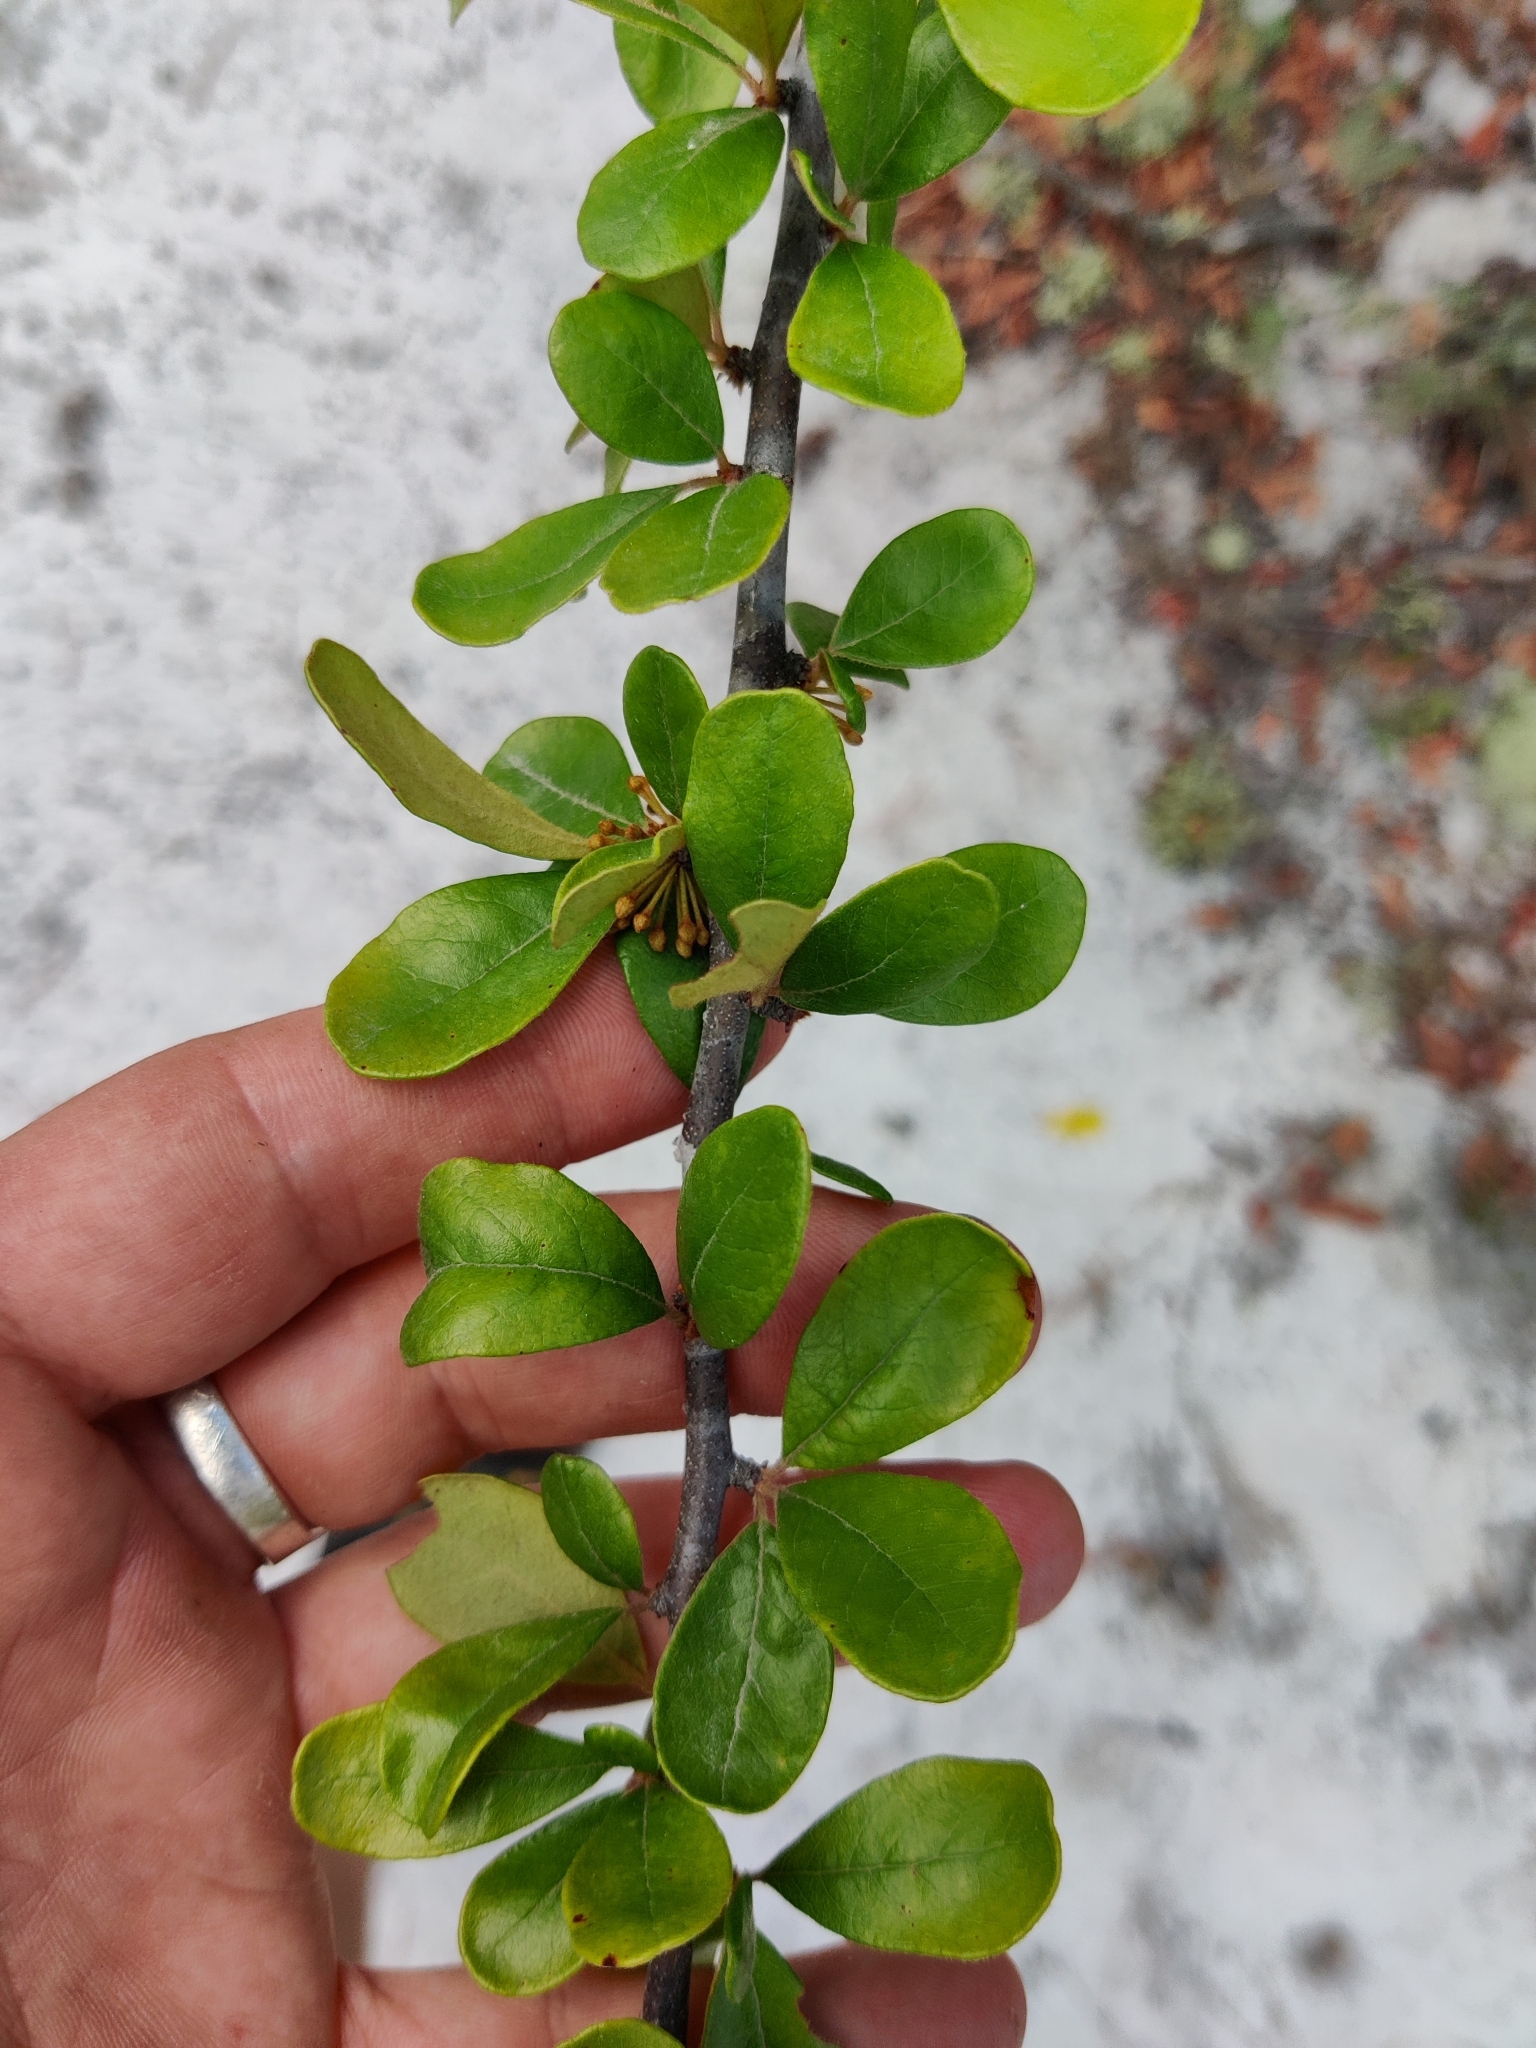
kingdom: Plantae
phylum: Tracheophyta
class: Magnoliopsida
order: Ericales
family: Sapotaceae
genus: Sideroxylon
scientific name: Sideroxylon lanuginosum
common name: Chittamwood
